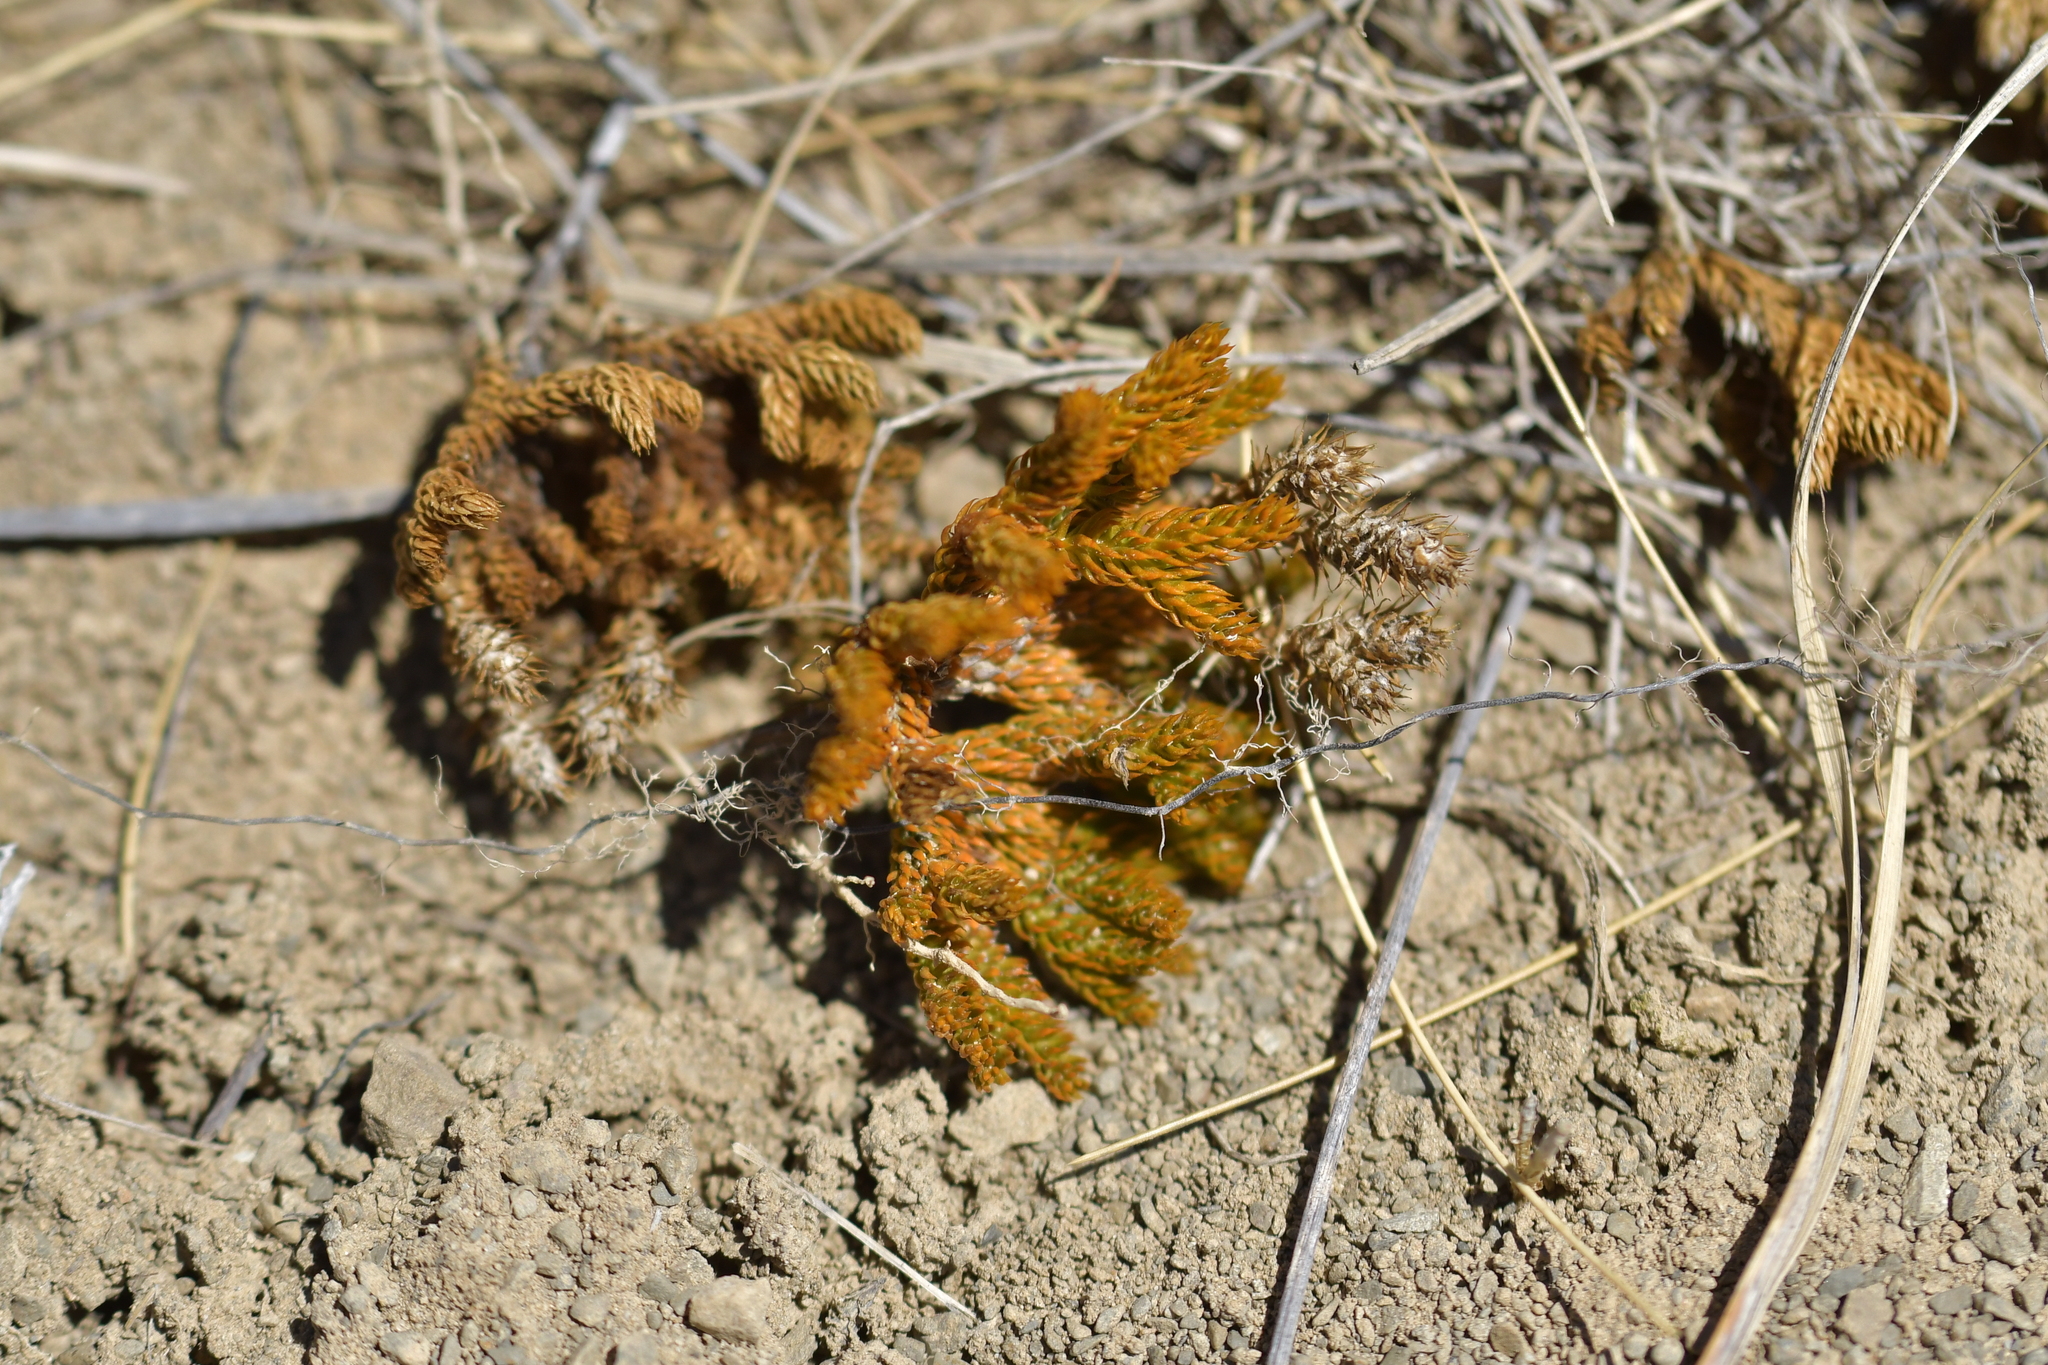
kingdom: Plantae
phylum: Tracheophyta
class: Lycopodiopsida
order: Lycopodiales
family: Lycopodiaceae
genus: Austrolycopodium
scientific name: Austrolycopodium fastigiatum
